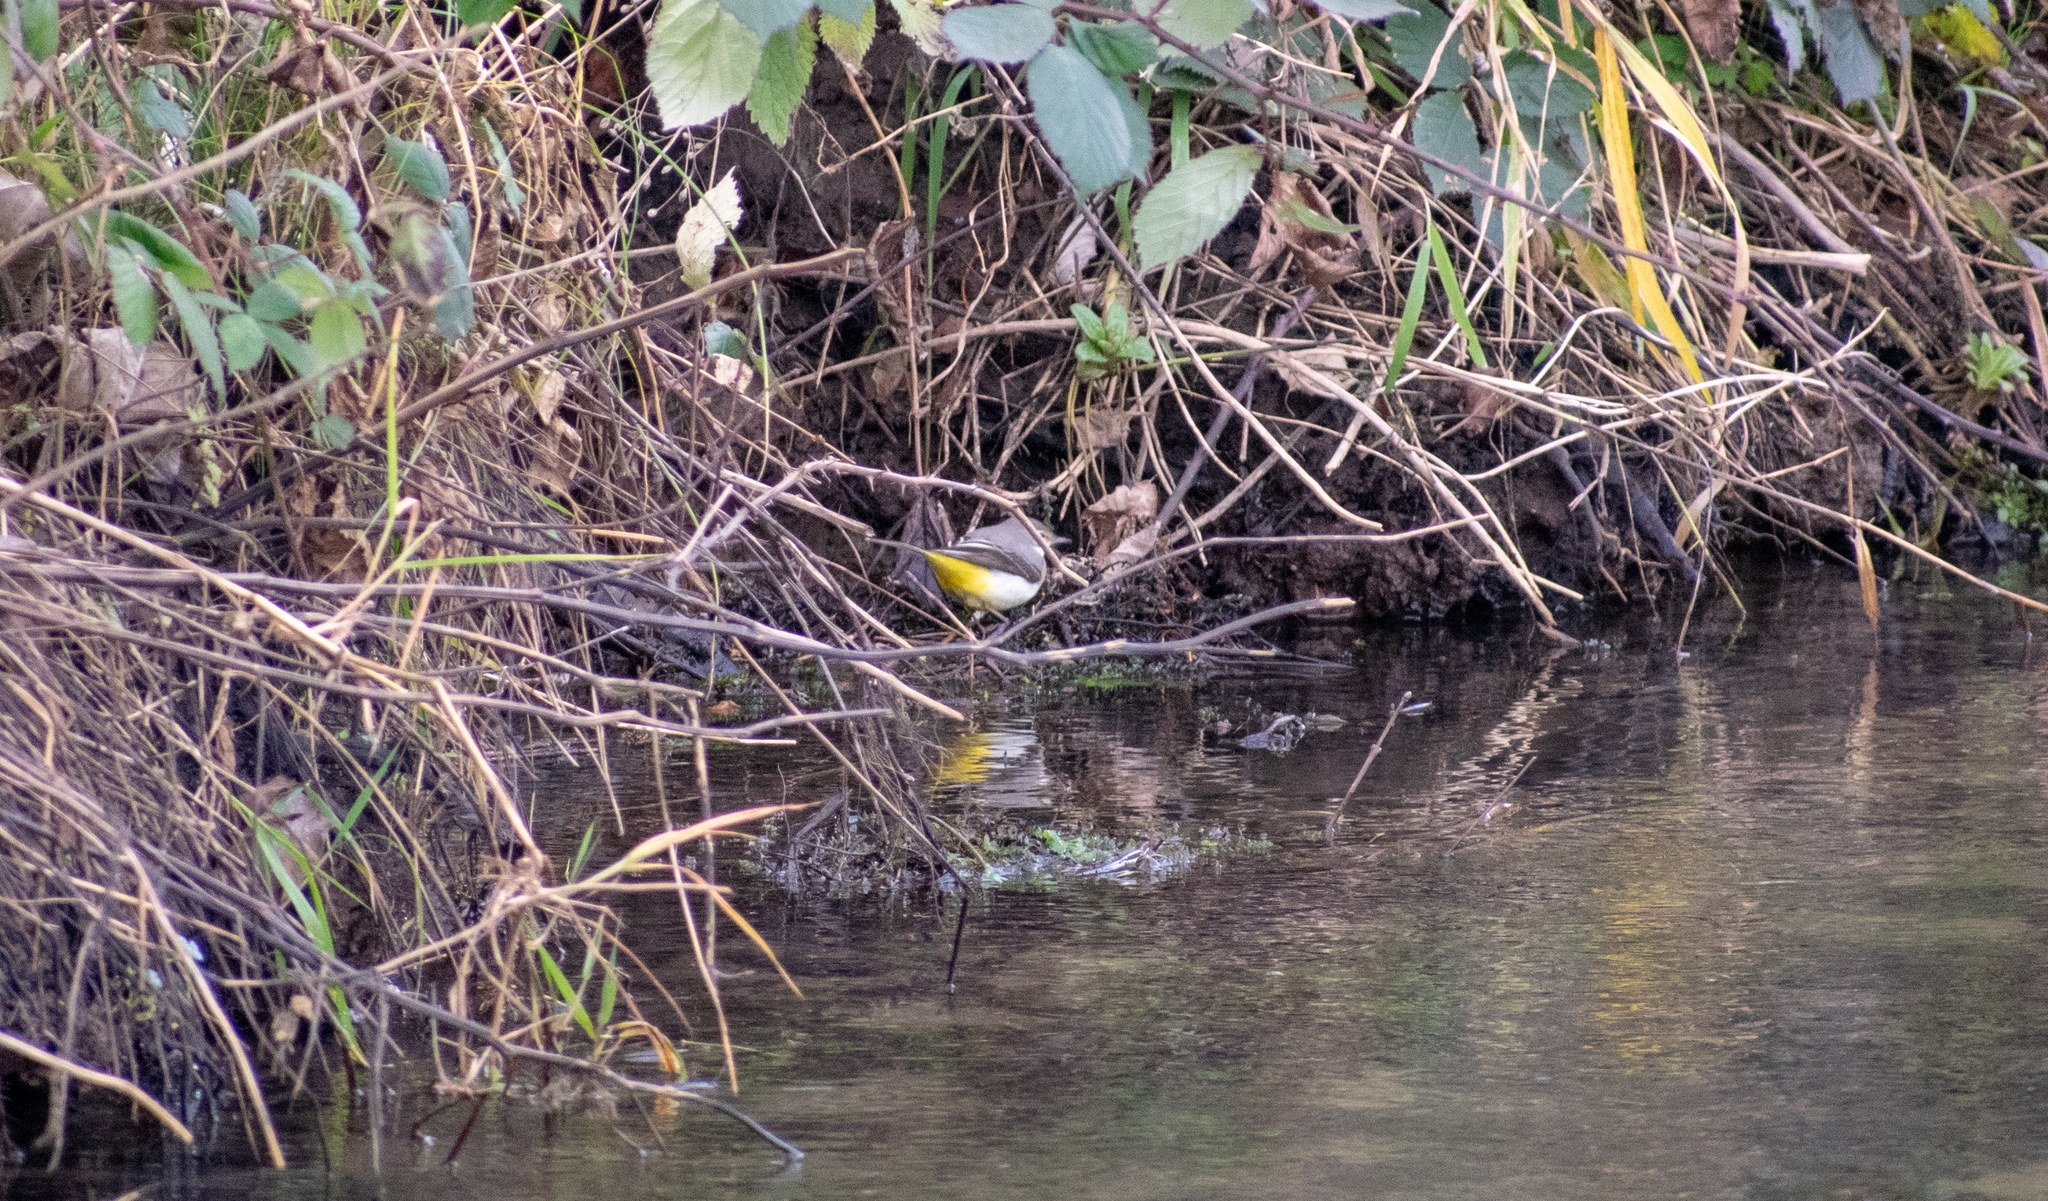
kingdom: Animalia
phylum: Chordata
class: Aves
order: Passeriformes
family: Motacillidae
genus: Motacilla
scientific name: Motacilla cinerea
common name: Grey wagtail
